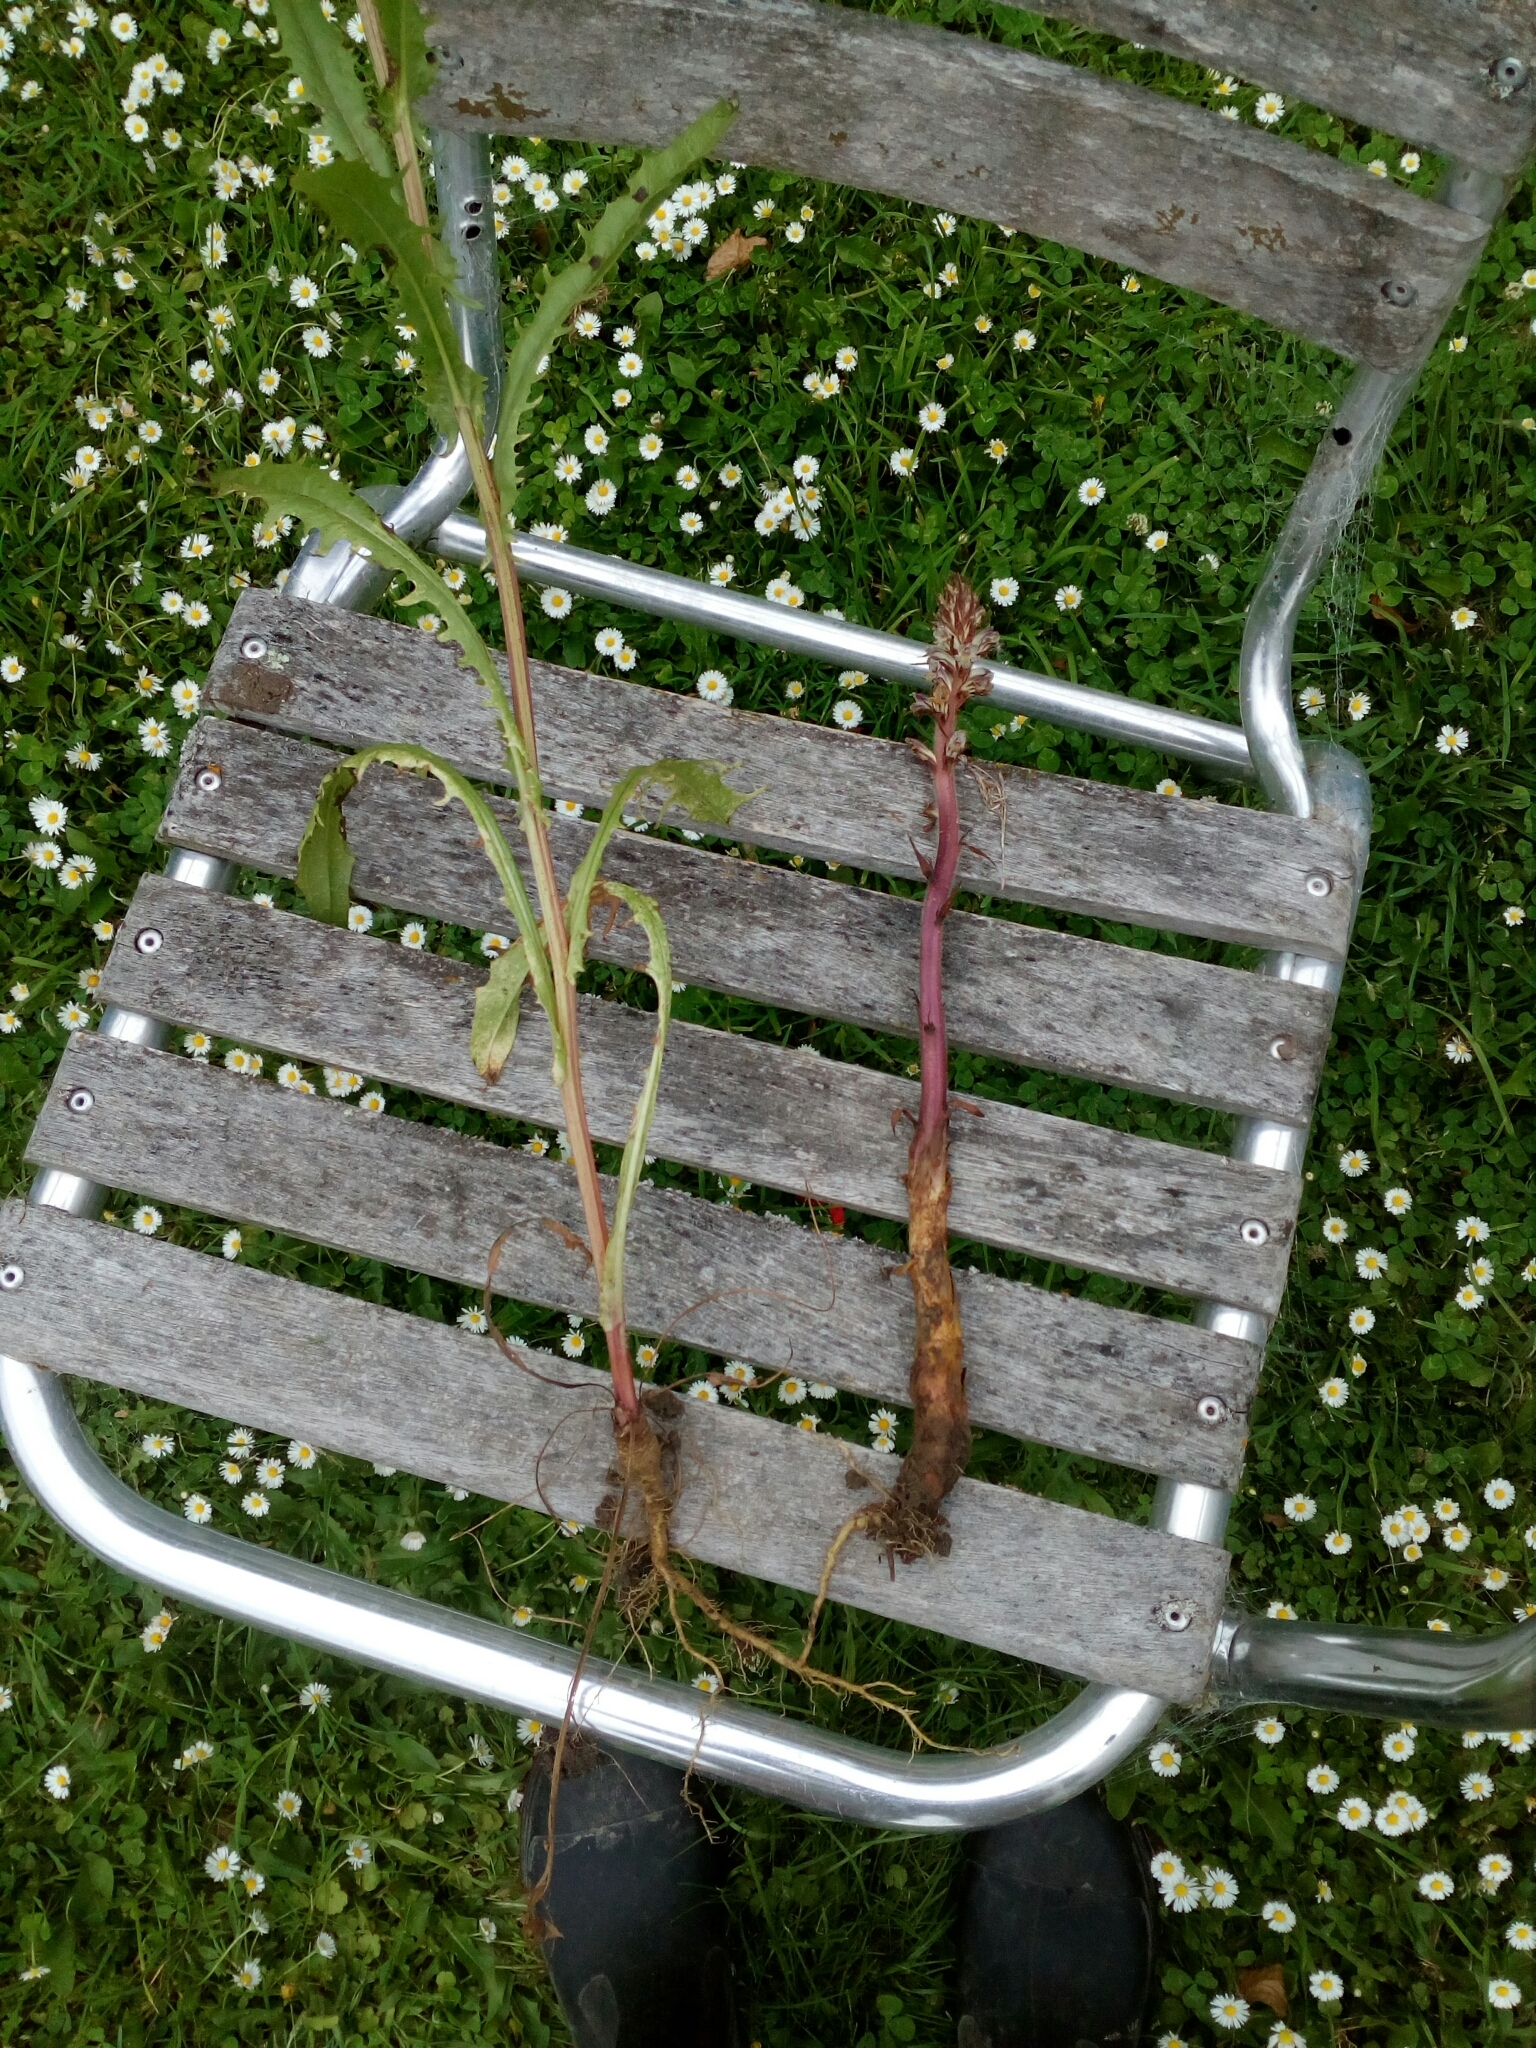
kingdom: Plantae
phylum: Tracheophyta
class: Magnoliopsida
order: Asterales
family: Asteraceae
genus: Crepis
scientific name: Crepis capillaris
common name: Smooth hawksbeard
